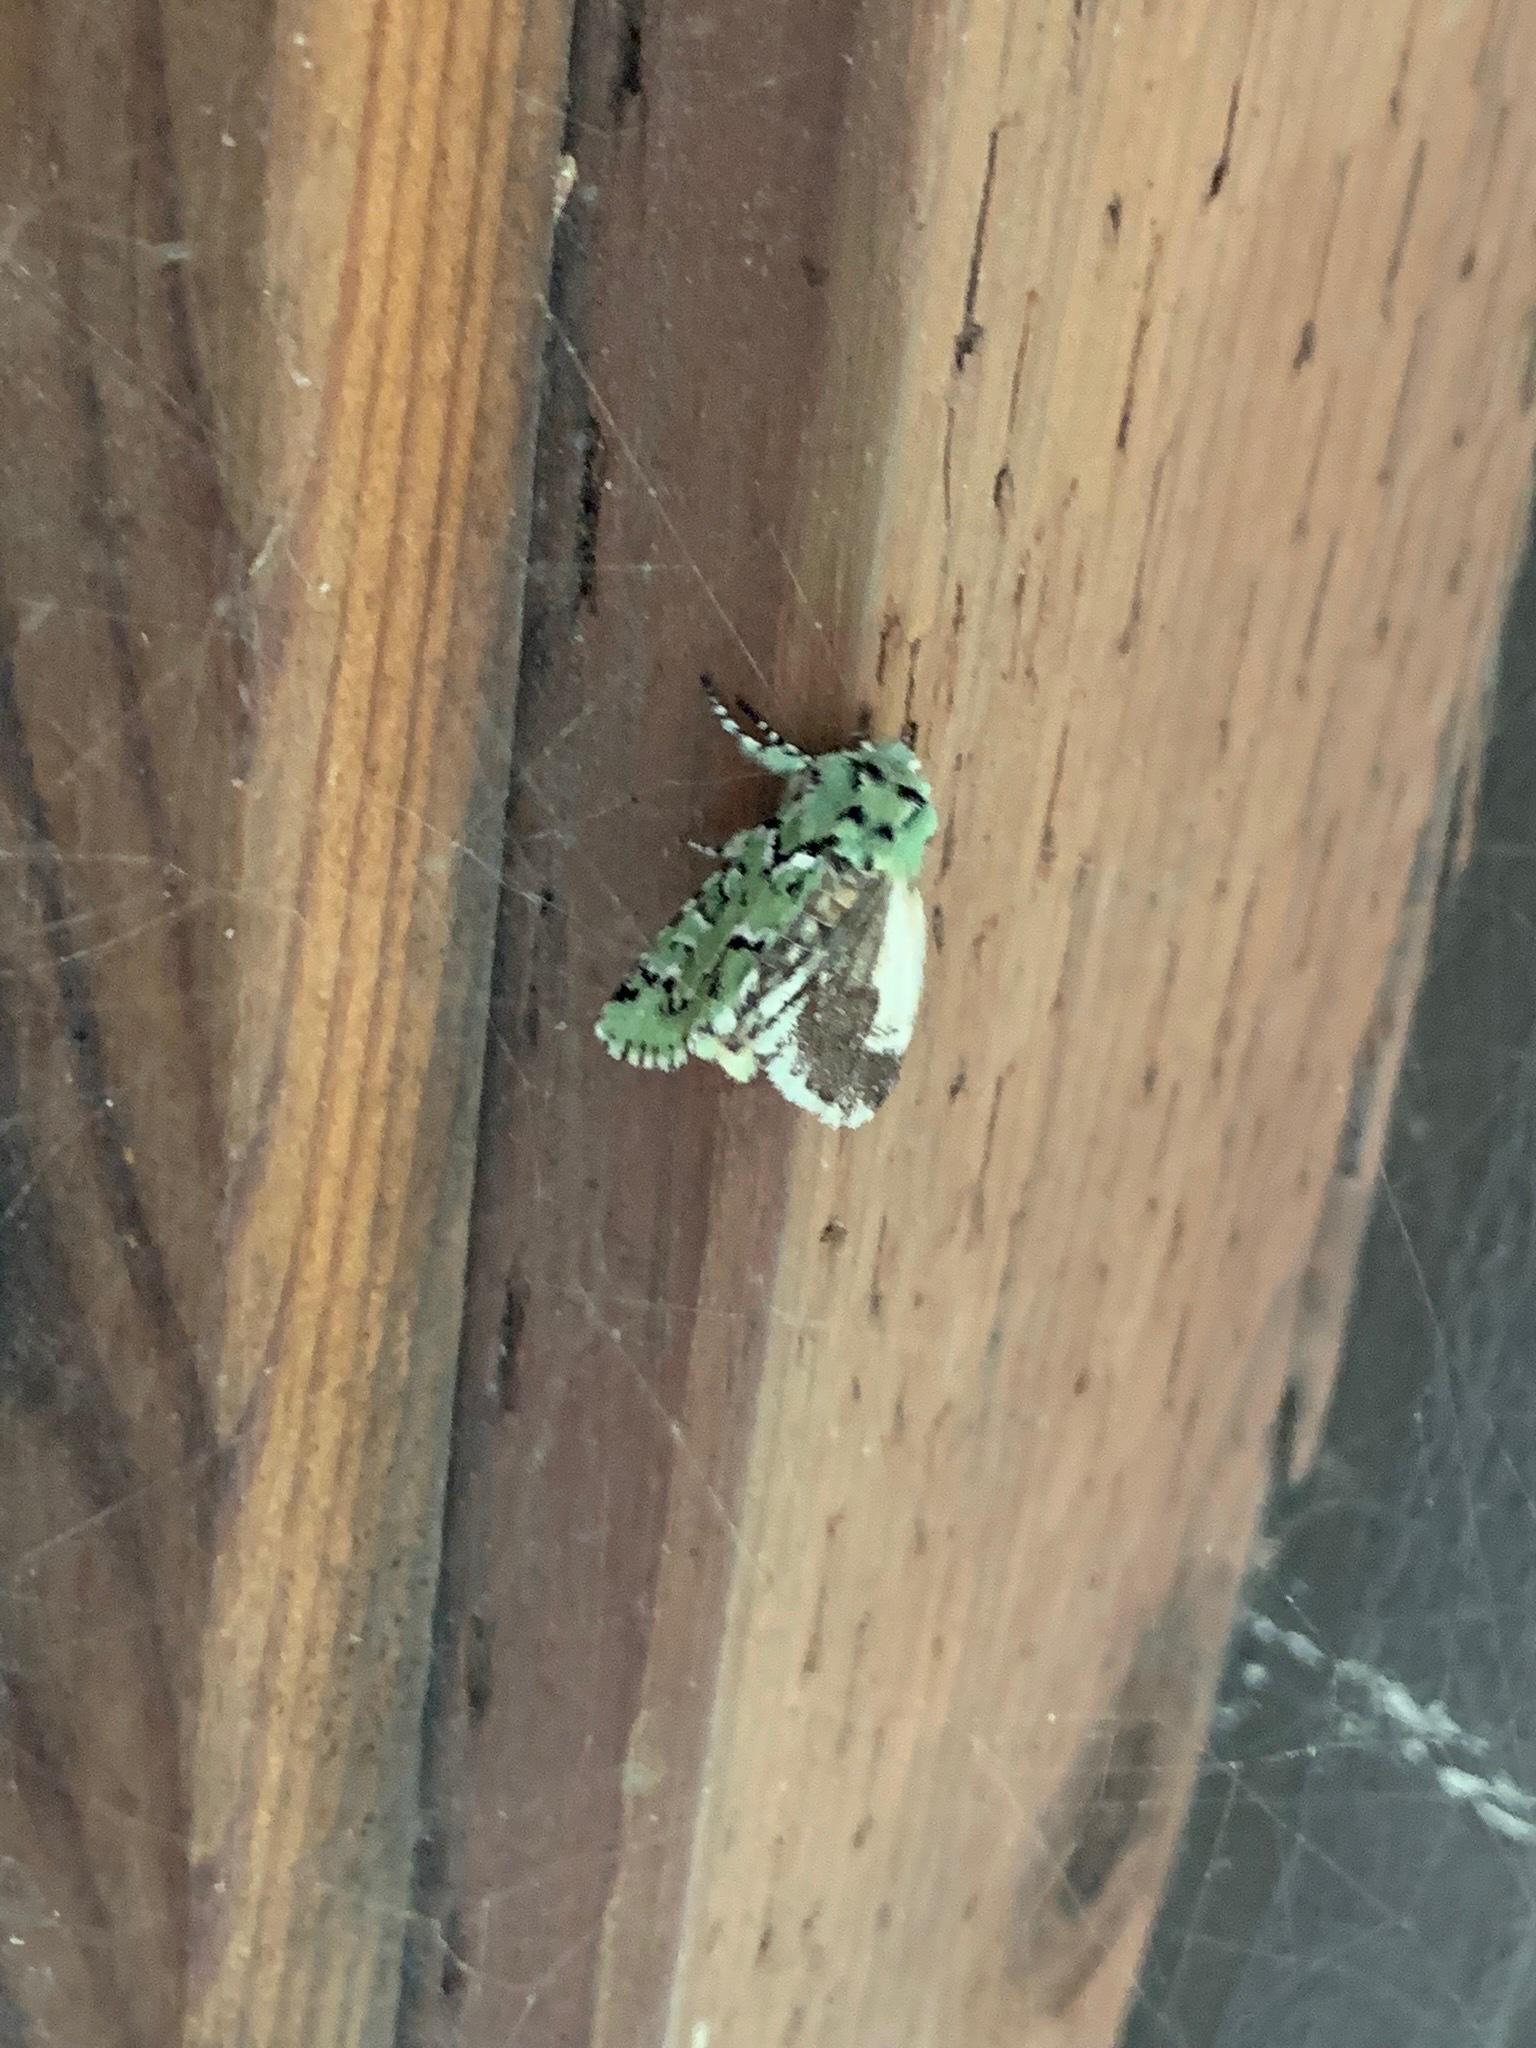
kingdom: Animalia
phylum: Arthropoda
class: Insecta
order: Lepidoptera
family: Noctuidae
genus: Feralia
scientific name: Feralia deceptiva
